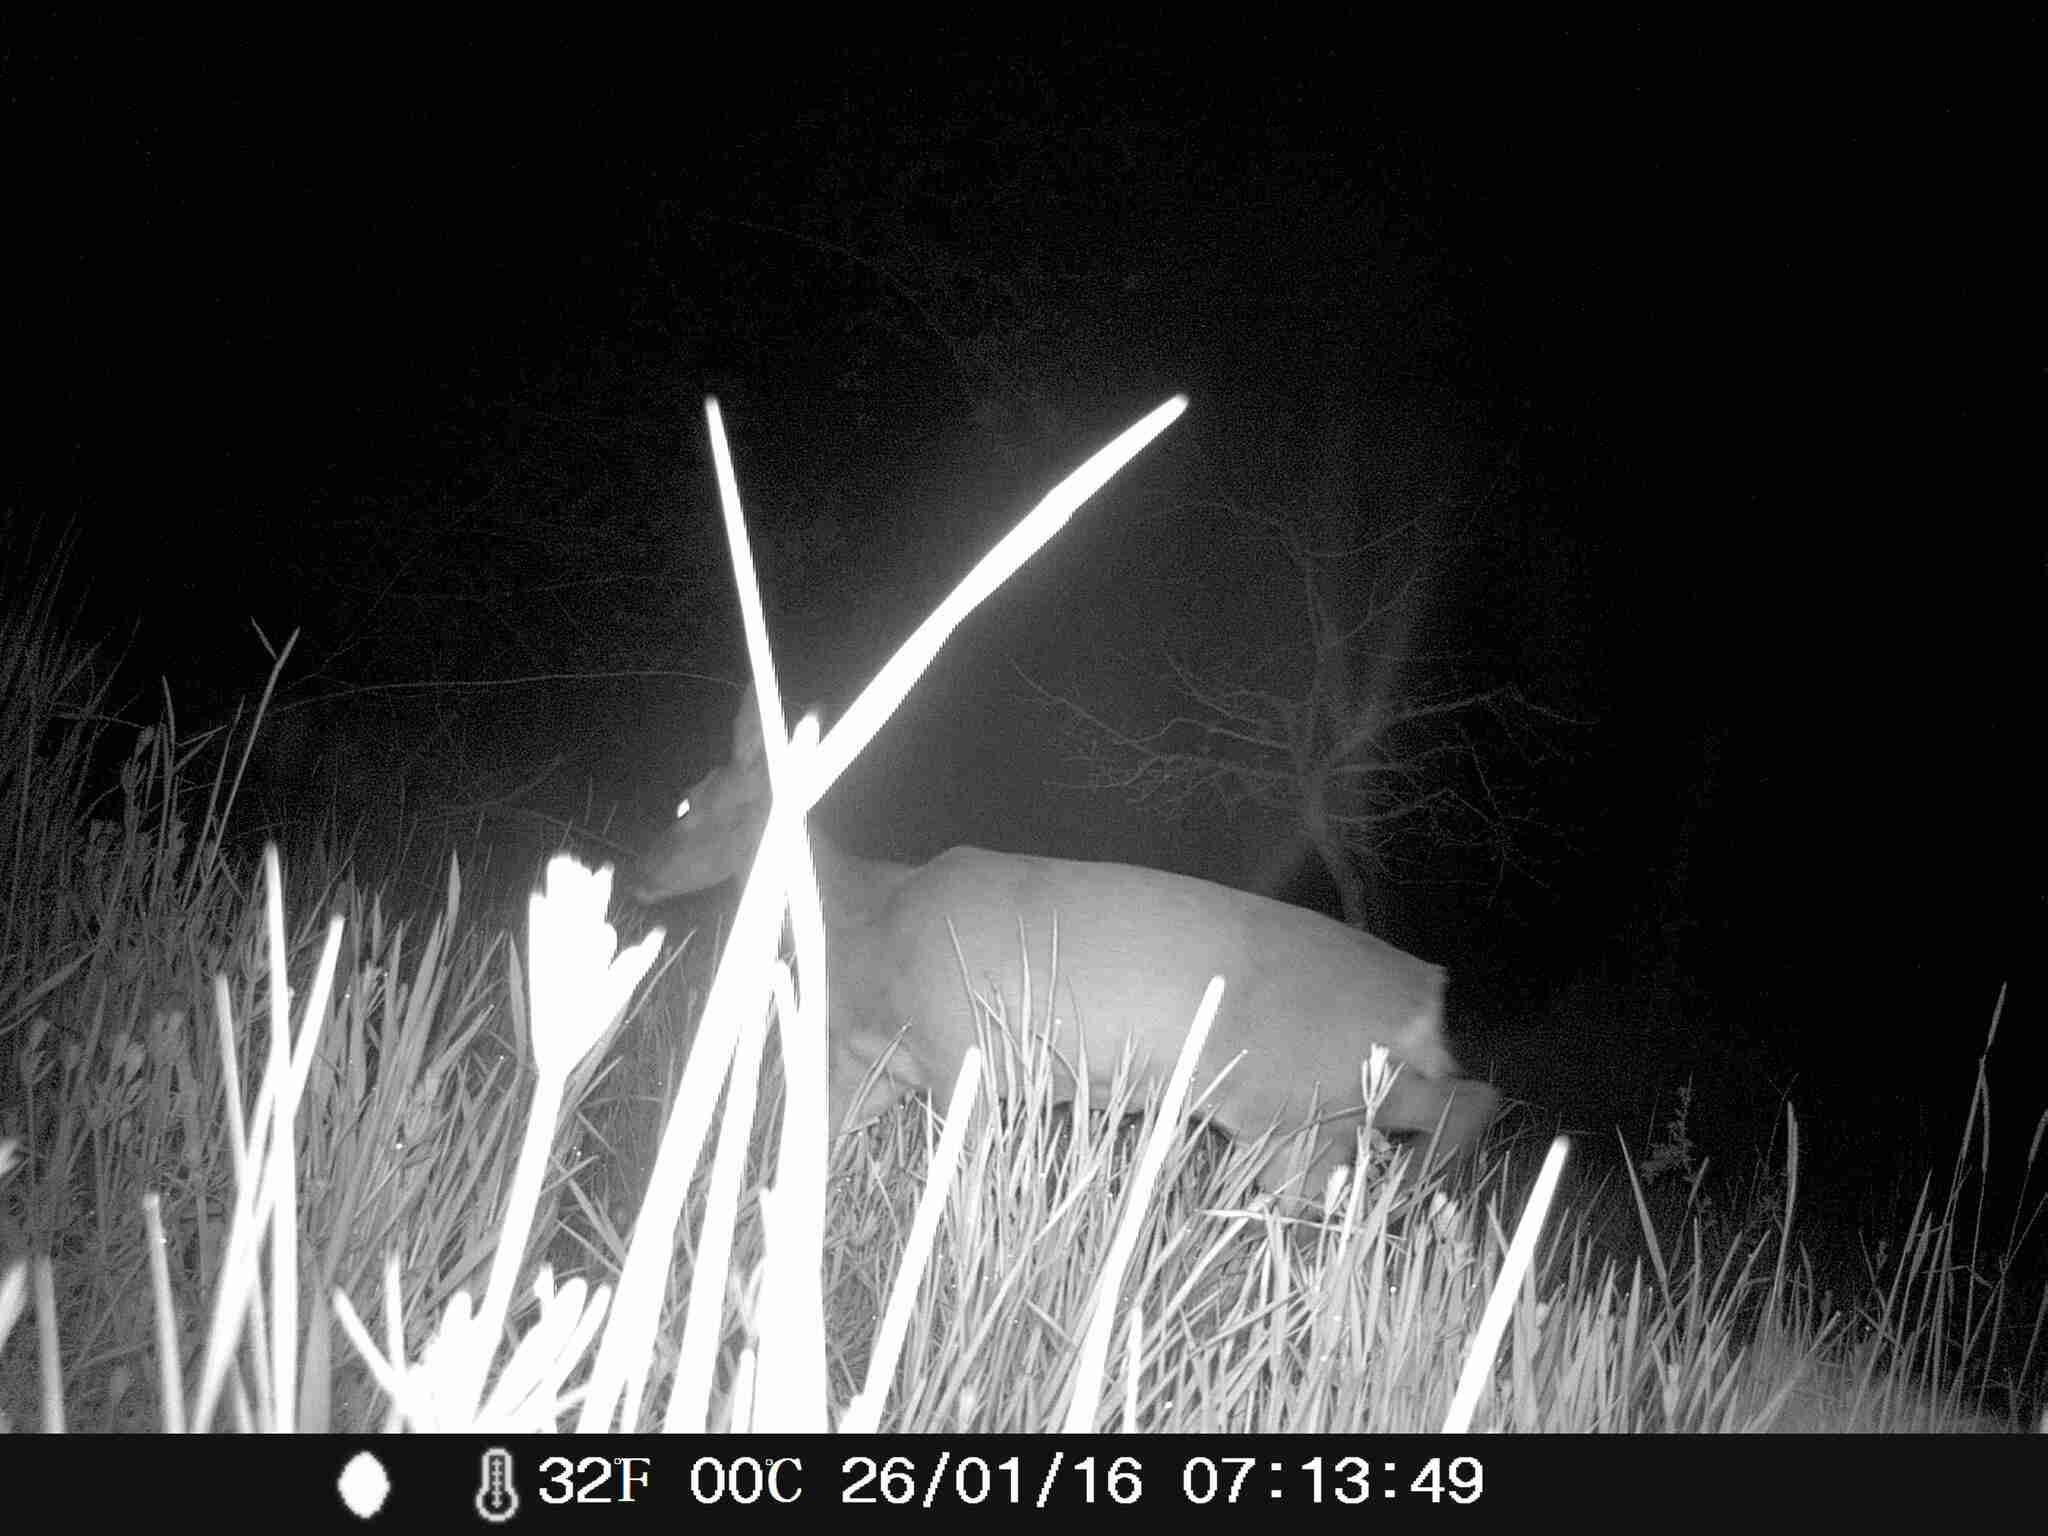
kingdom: Animalia
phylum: Chordata
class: Mammalia
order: Artiodactyla
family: Cervidae
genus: Capreolus
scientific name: Capreolus capreolus
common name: Western roe deer
